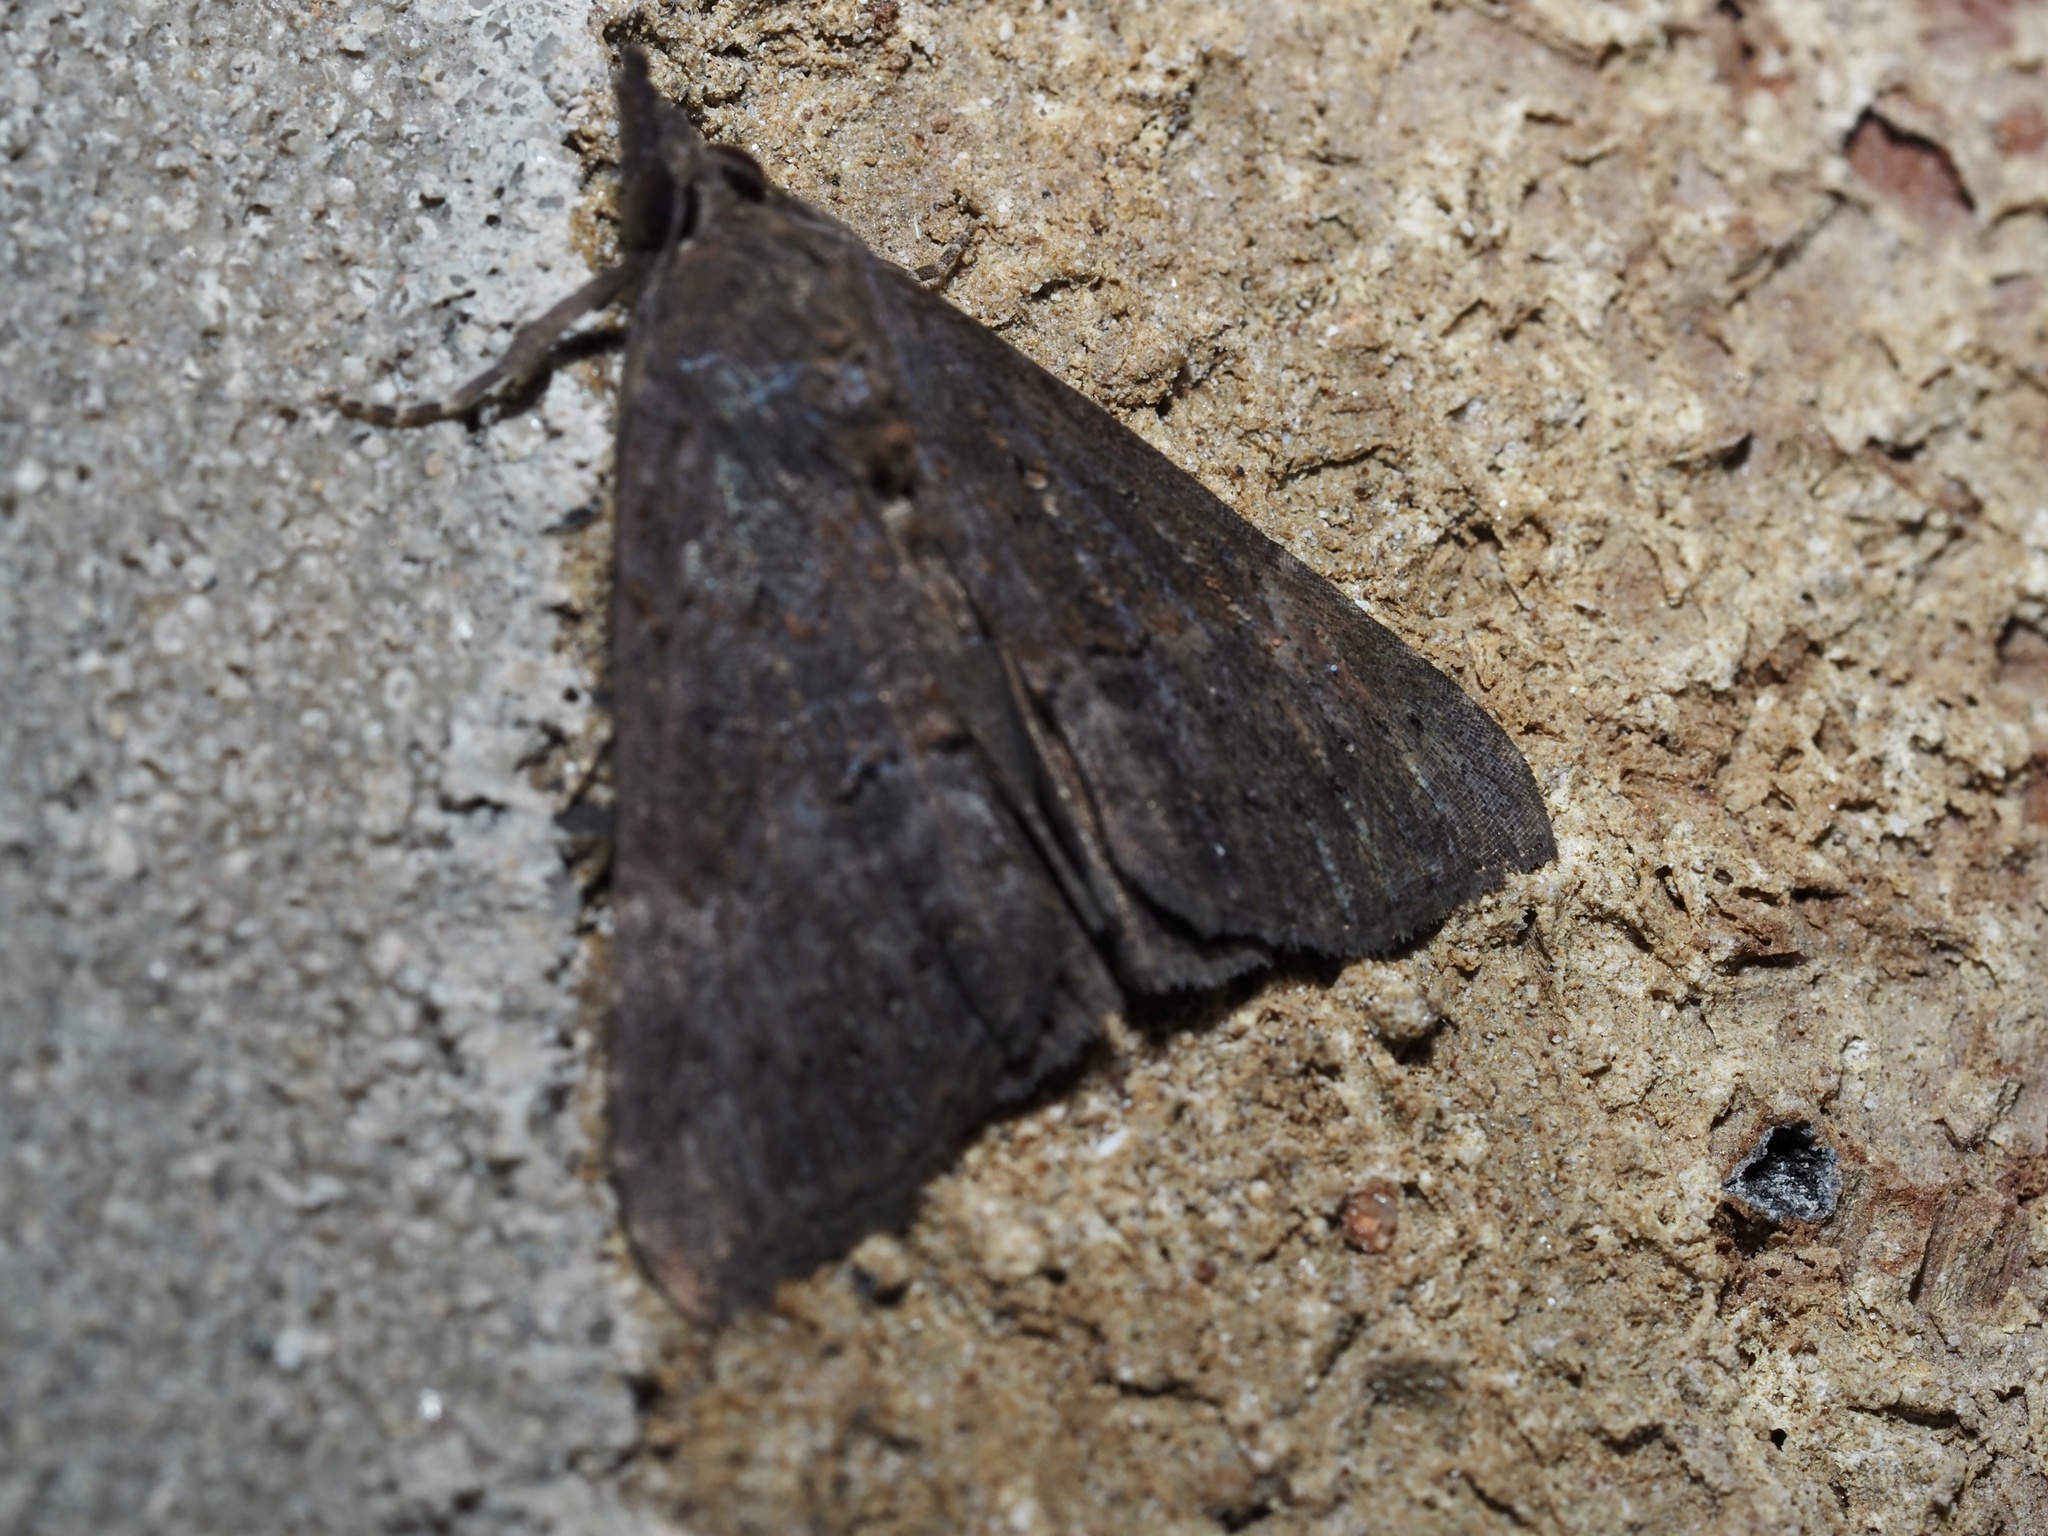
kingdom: Animalia
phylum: Arthropoda
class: Insecta
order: Lepidoptera
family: Erebidae
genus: Hypena
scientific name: Hypena scabra
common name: Green cloverworm
